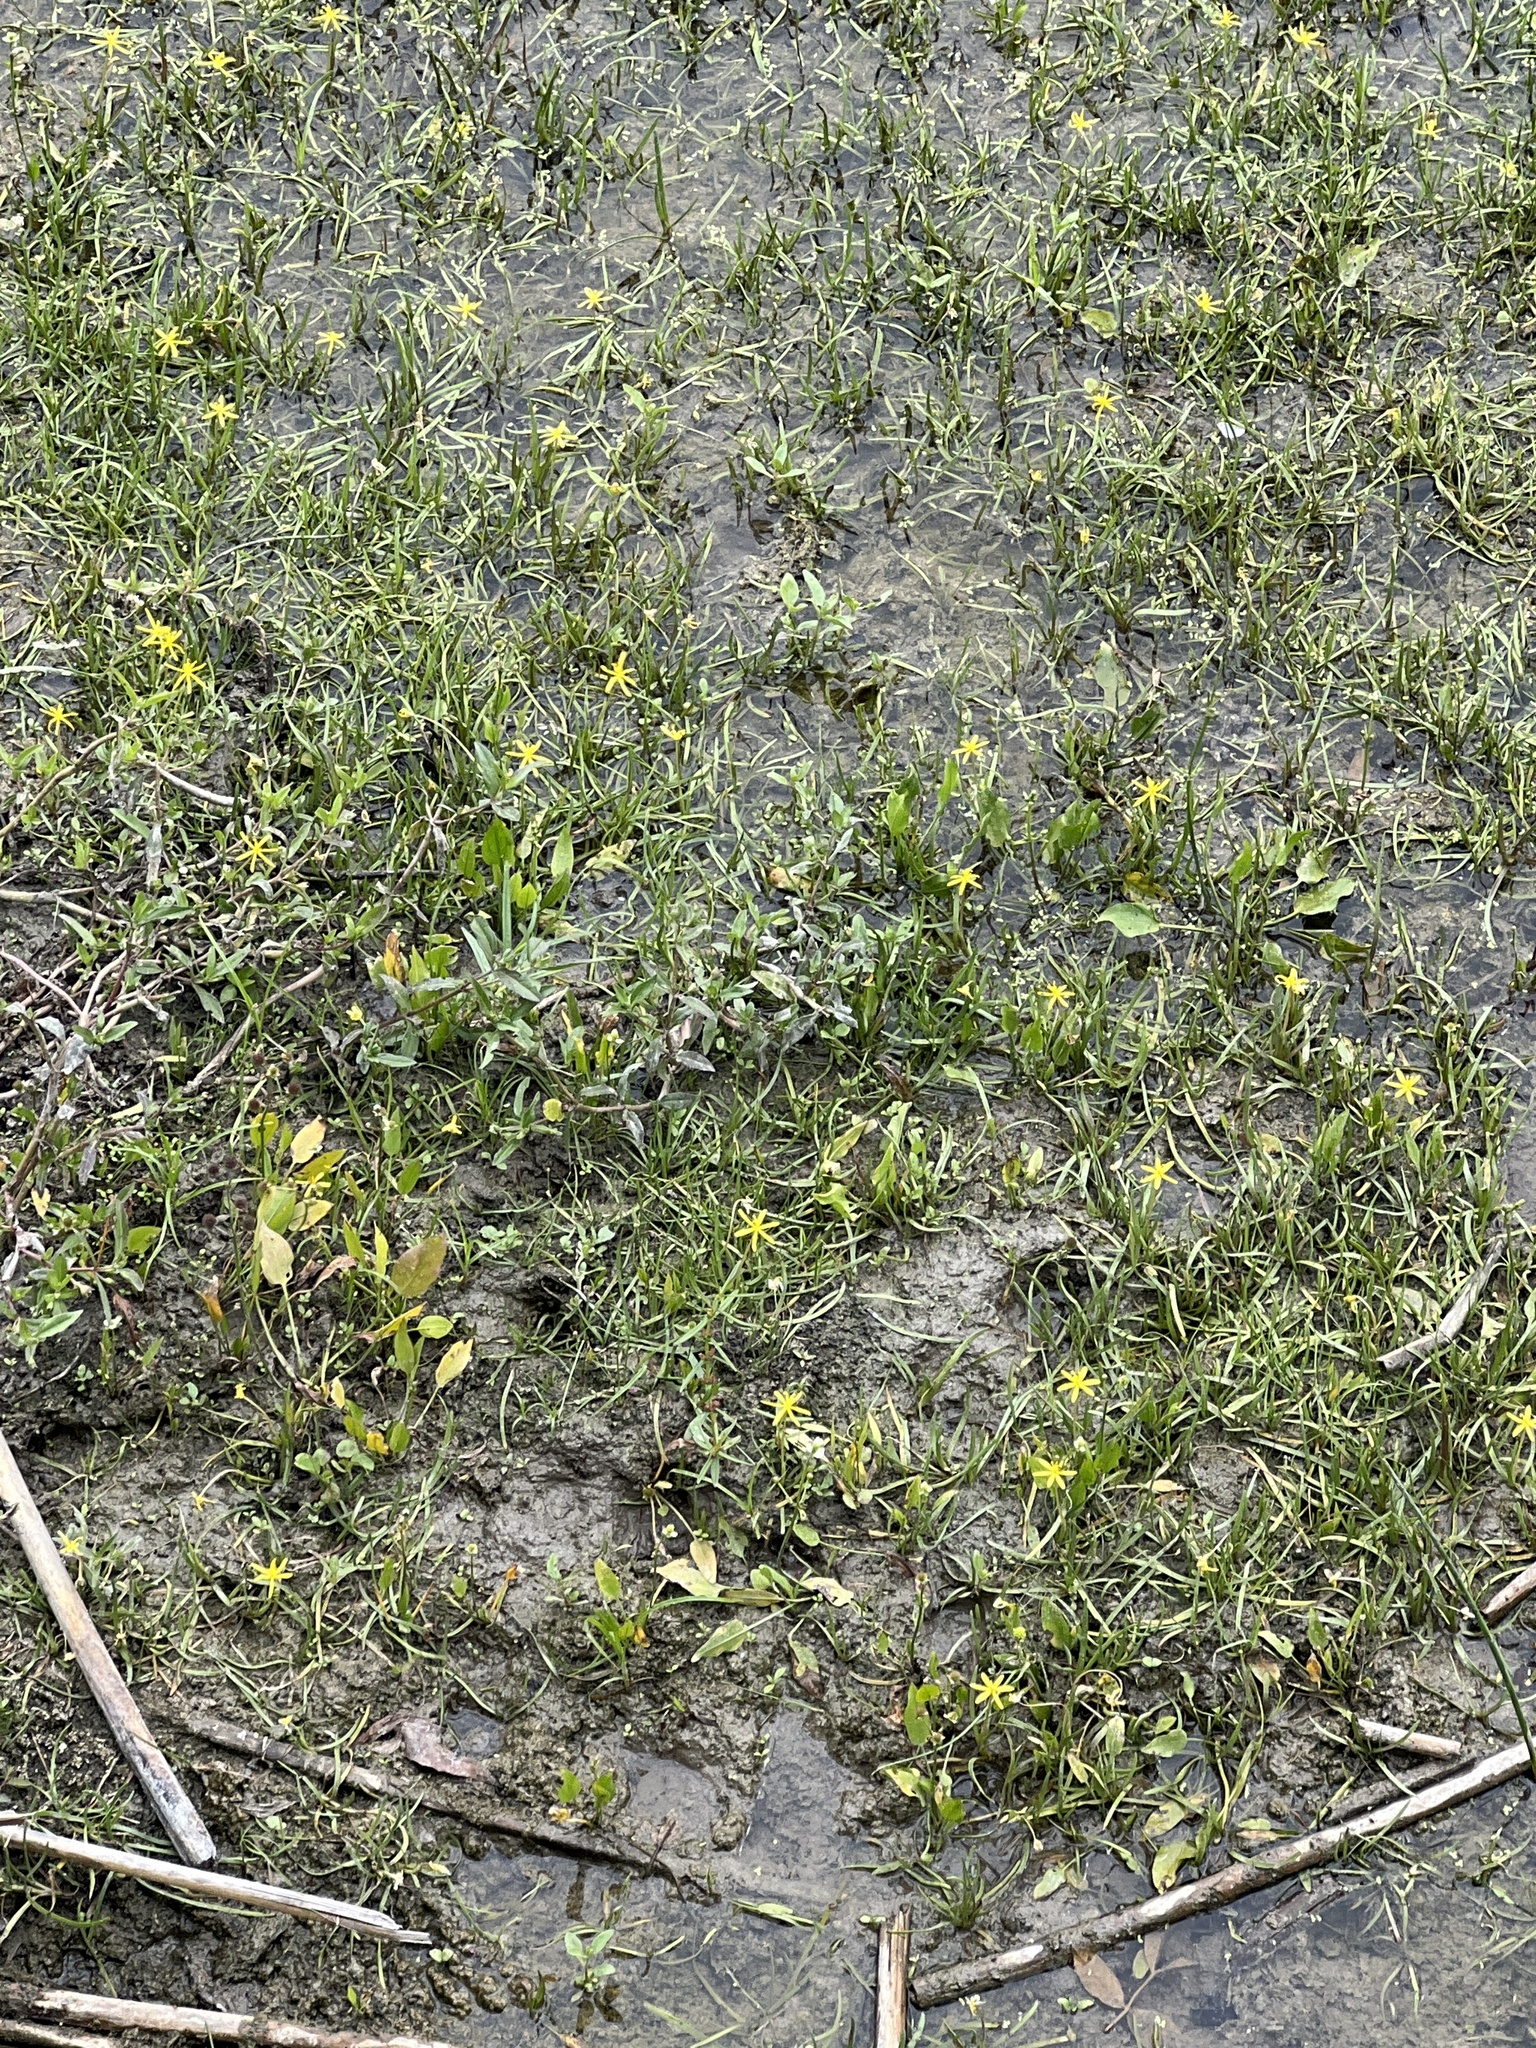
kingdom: Plantae
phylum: Tracheophyta
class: Liliopsida
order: Commelinales
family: Pontederiaceae
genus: Heteranthera
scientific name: Heteranthera dubia
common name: Grass-leaved mud plantain
